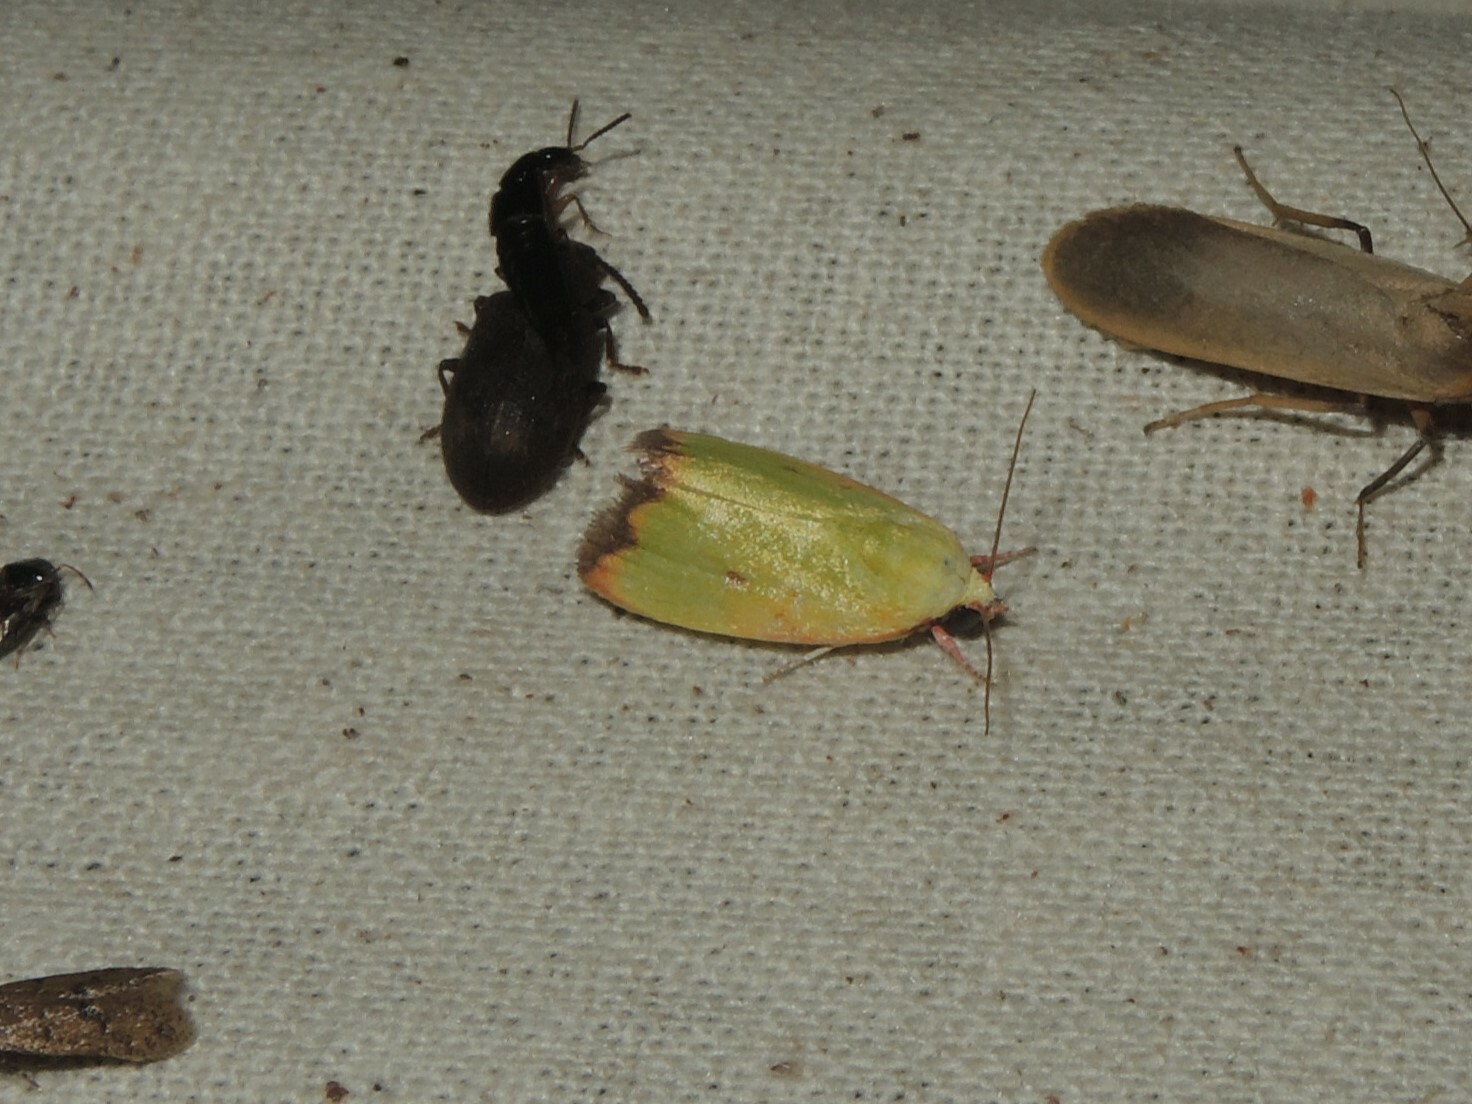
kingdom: Animalia
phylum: Arthropoda
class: Insecta
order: Lepidoptera
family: Nolidae
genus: Earias
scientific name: Earias cupreoviridis
